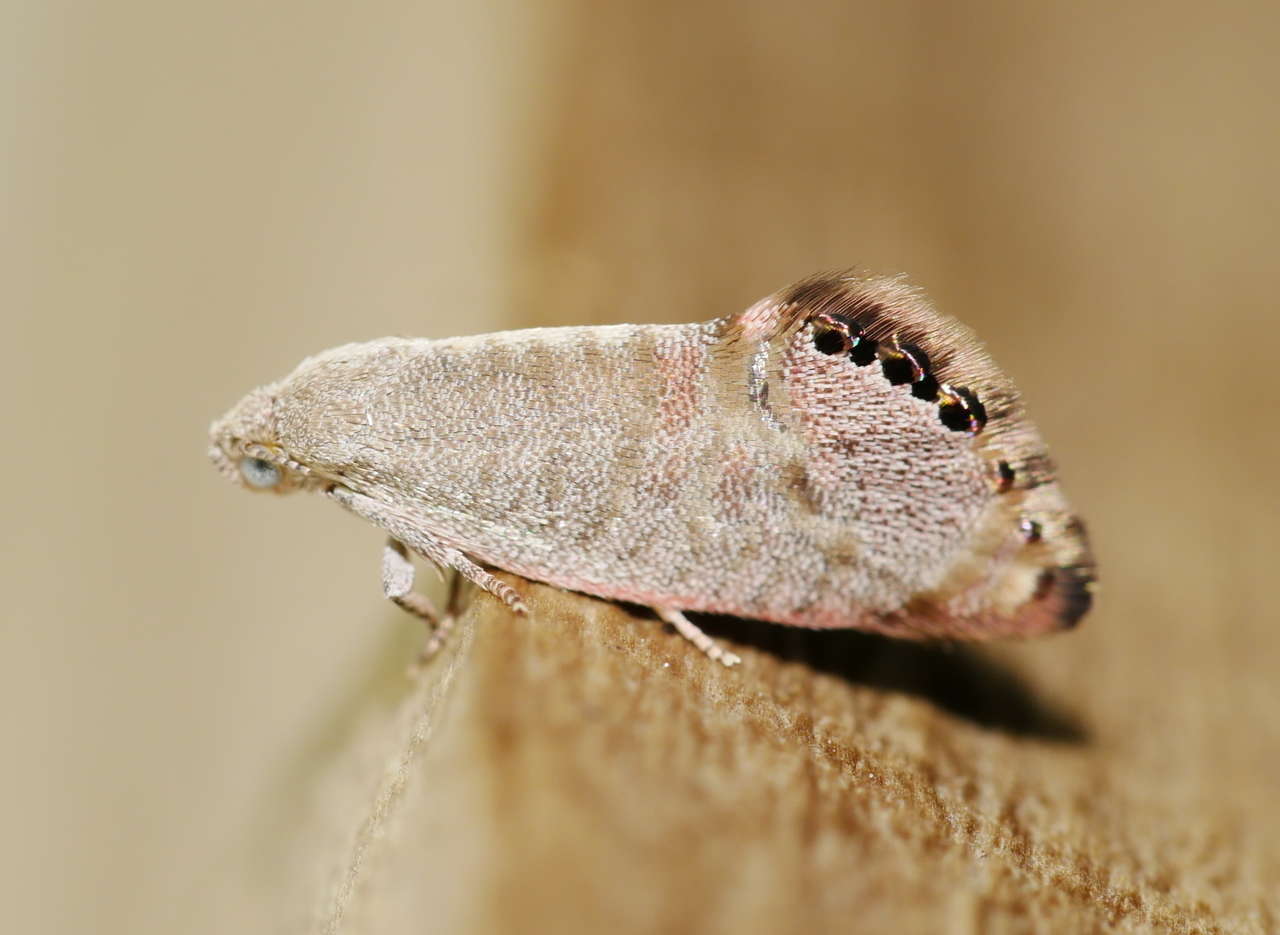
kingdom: Animalia
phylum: Arthropoda
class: Insecta
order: Lepidoptera
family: Depressariidae
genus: Eupselia
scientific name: Eupselia melanostrepta
